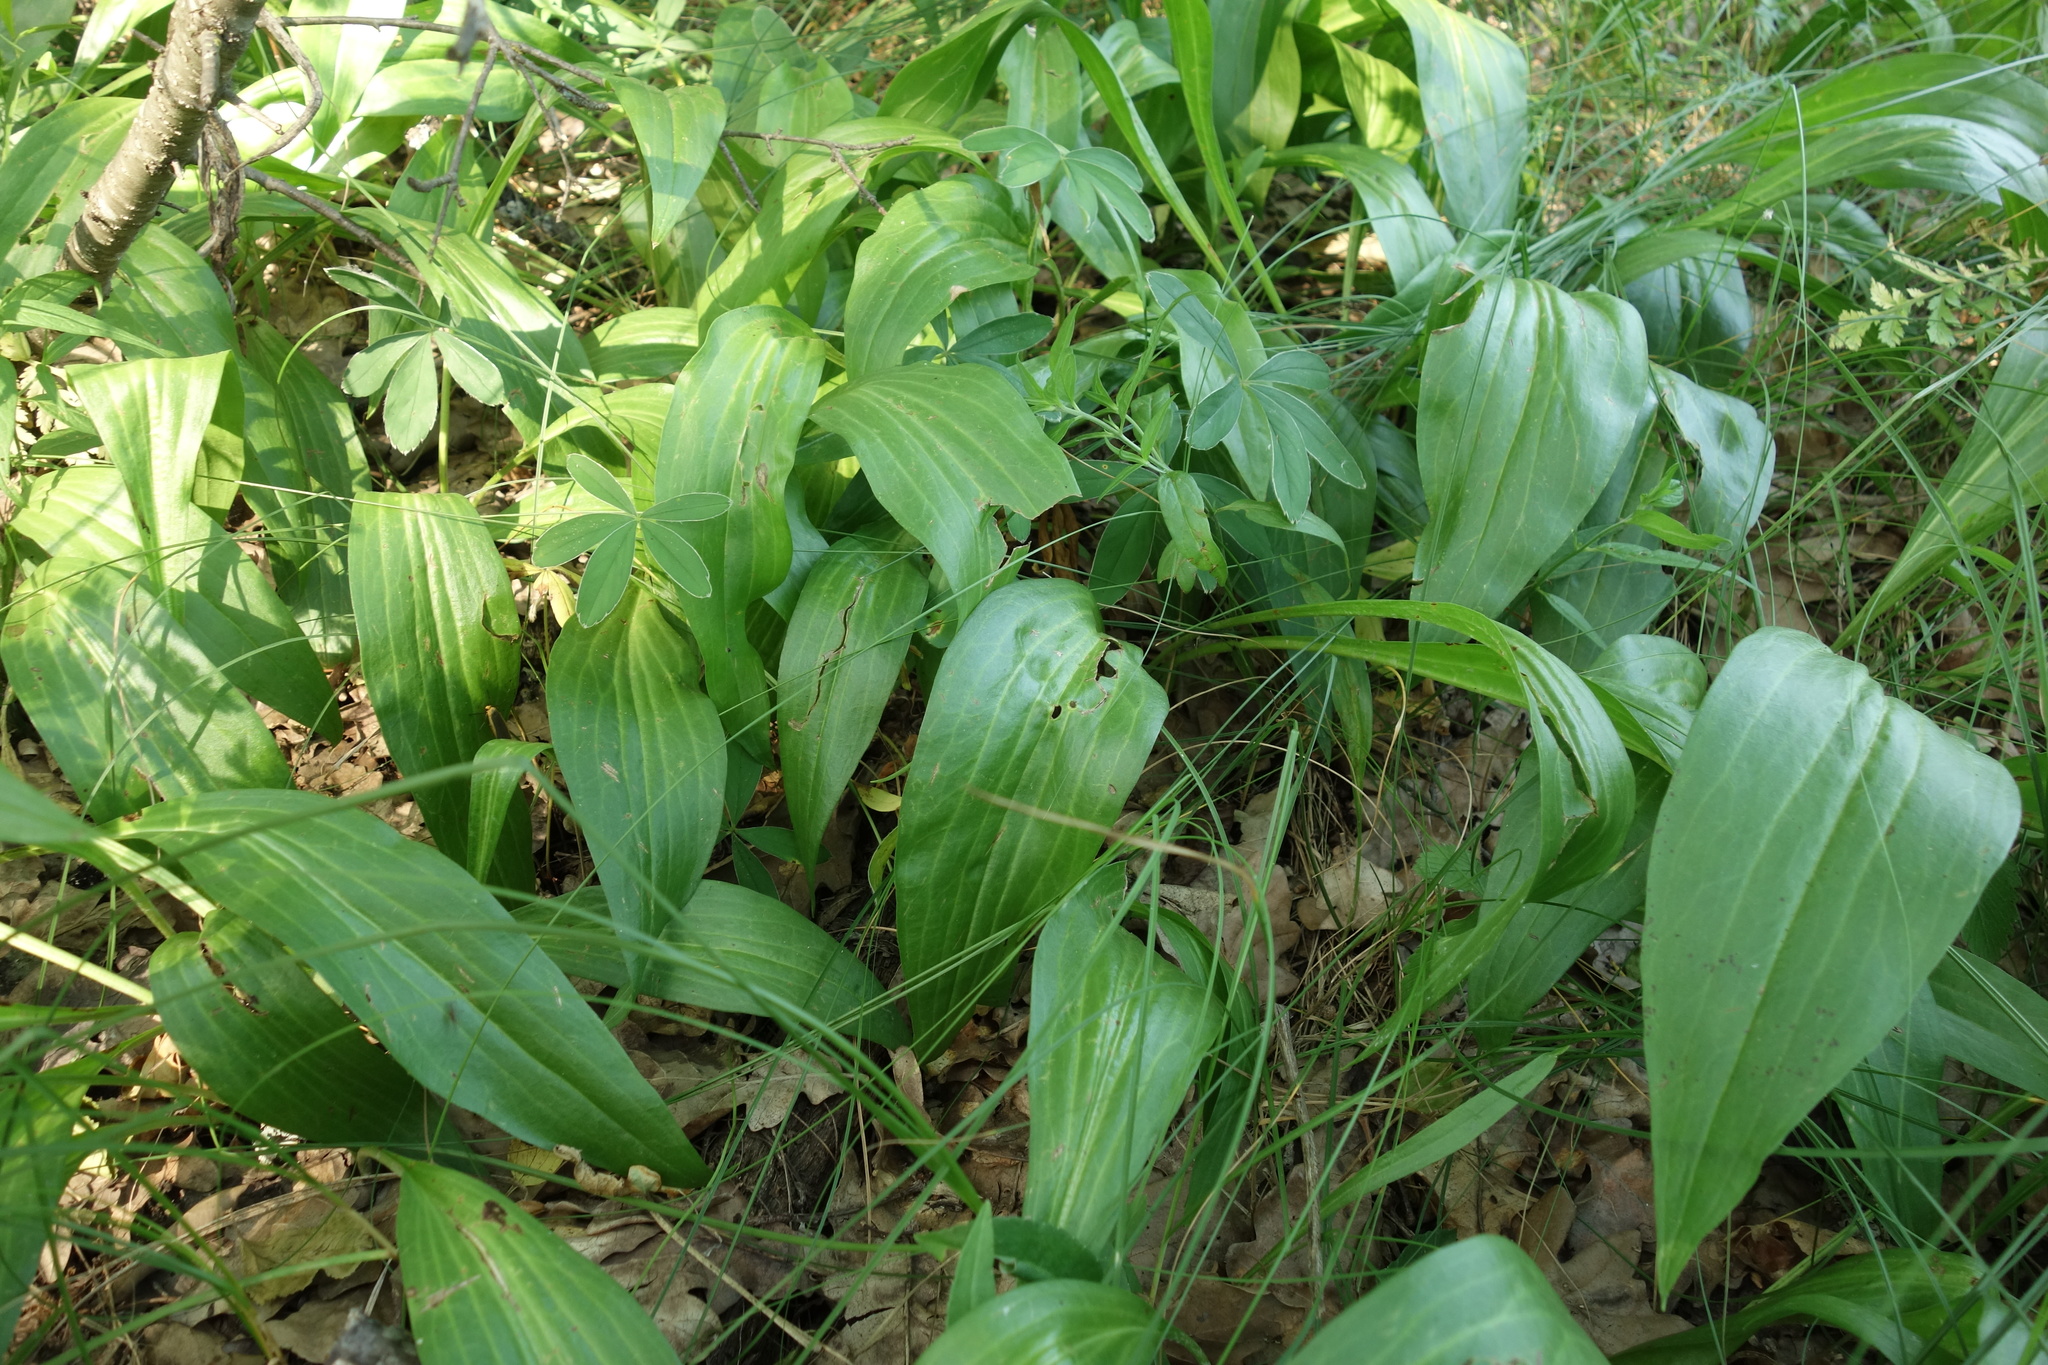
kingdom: Plantae
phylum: Tracheophyta
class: Magnoliopsida
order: Asterales
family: Asteraceae
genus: Scorzonera
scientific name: Scorzonera humilis
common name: Viper's-grass
